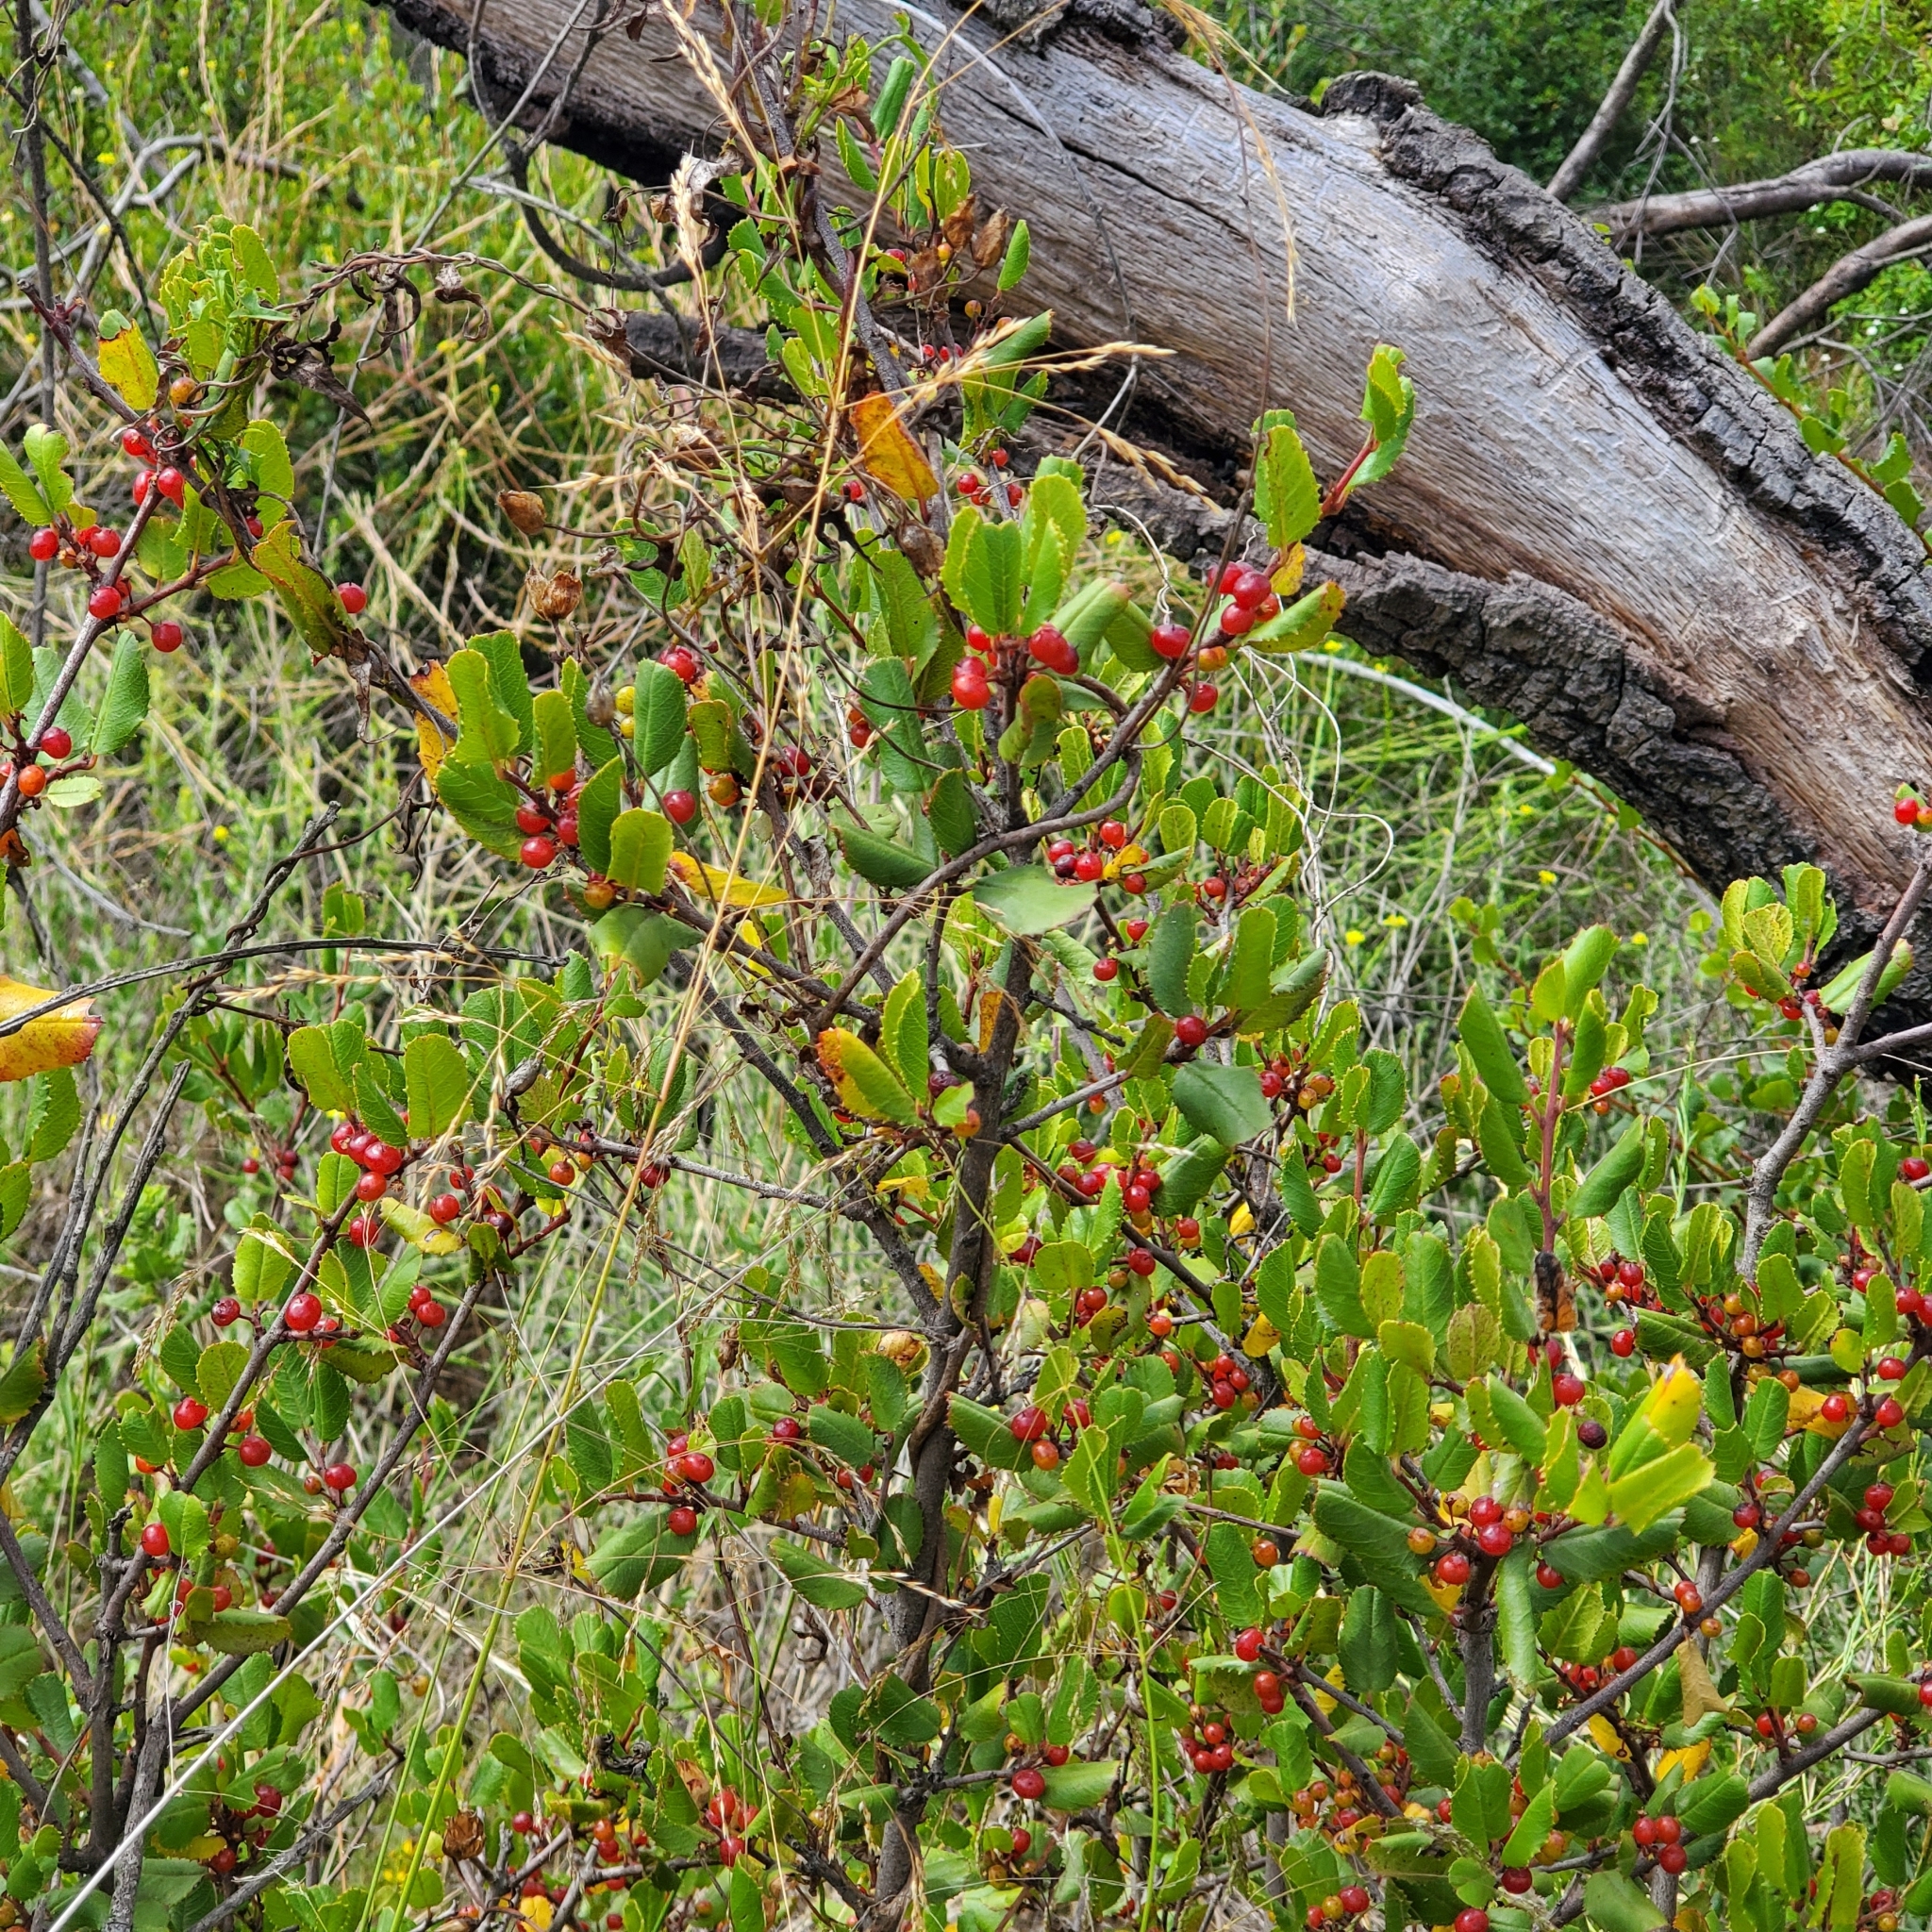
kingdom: Plantae
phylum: Tracheophyta
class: Magnoliopsida
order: Rosales
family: Rhamnaceae
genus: Endotropis
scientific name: Endotropis crocea
